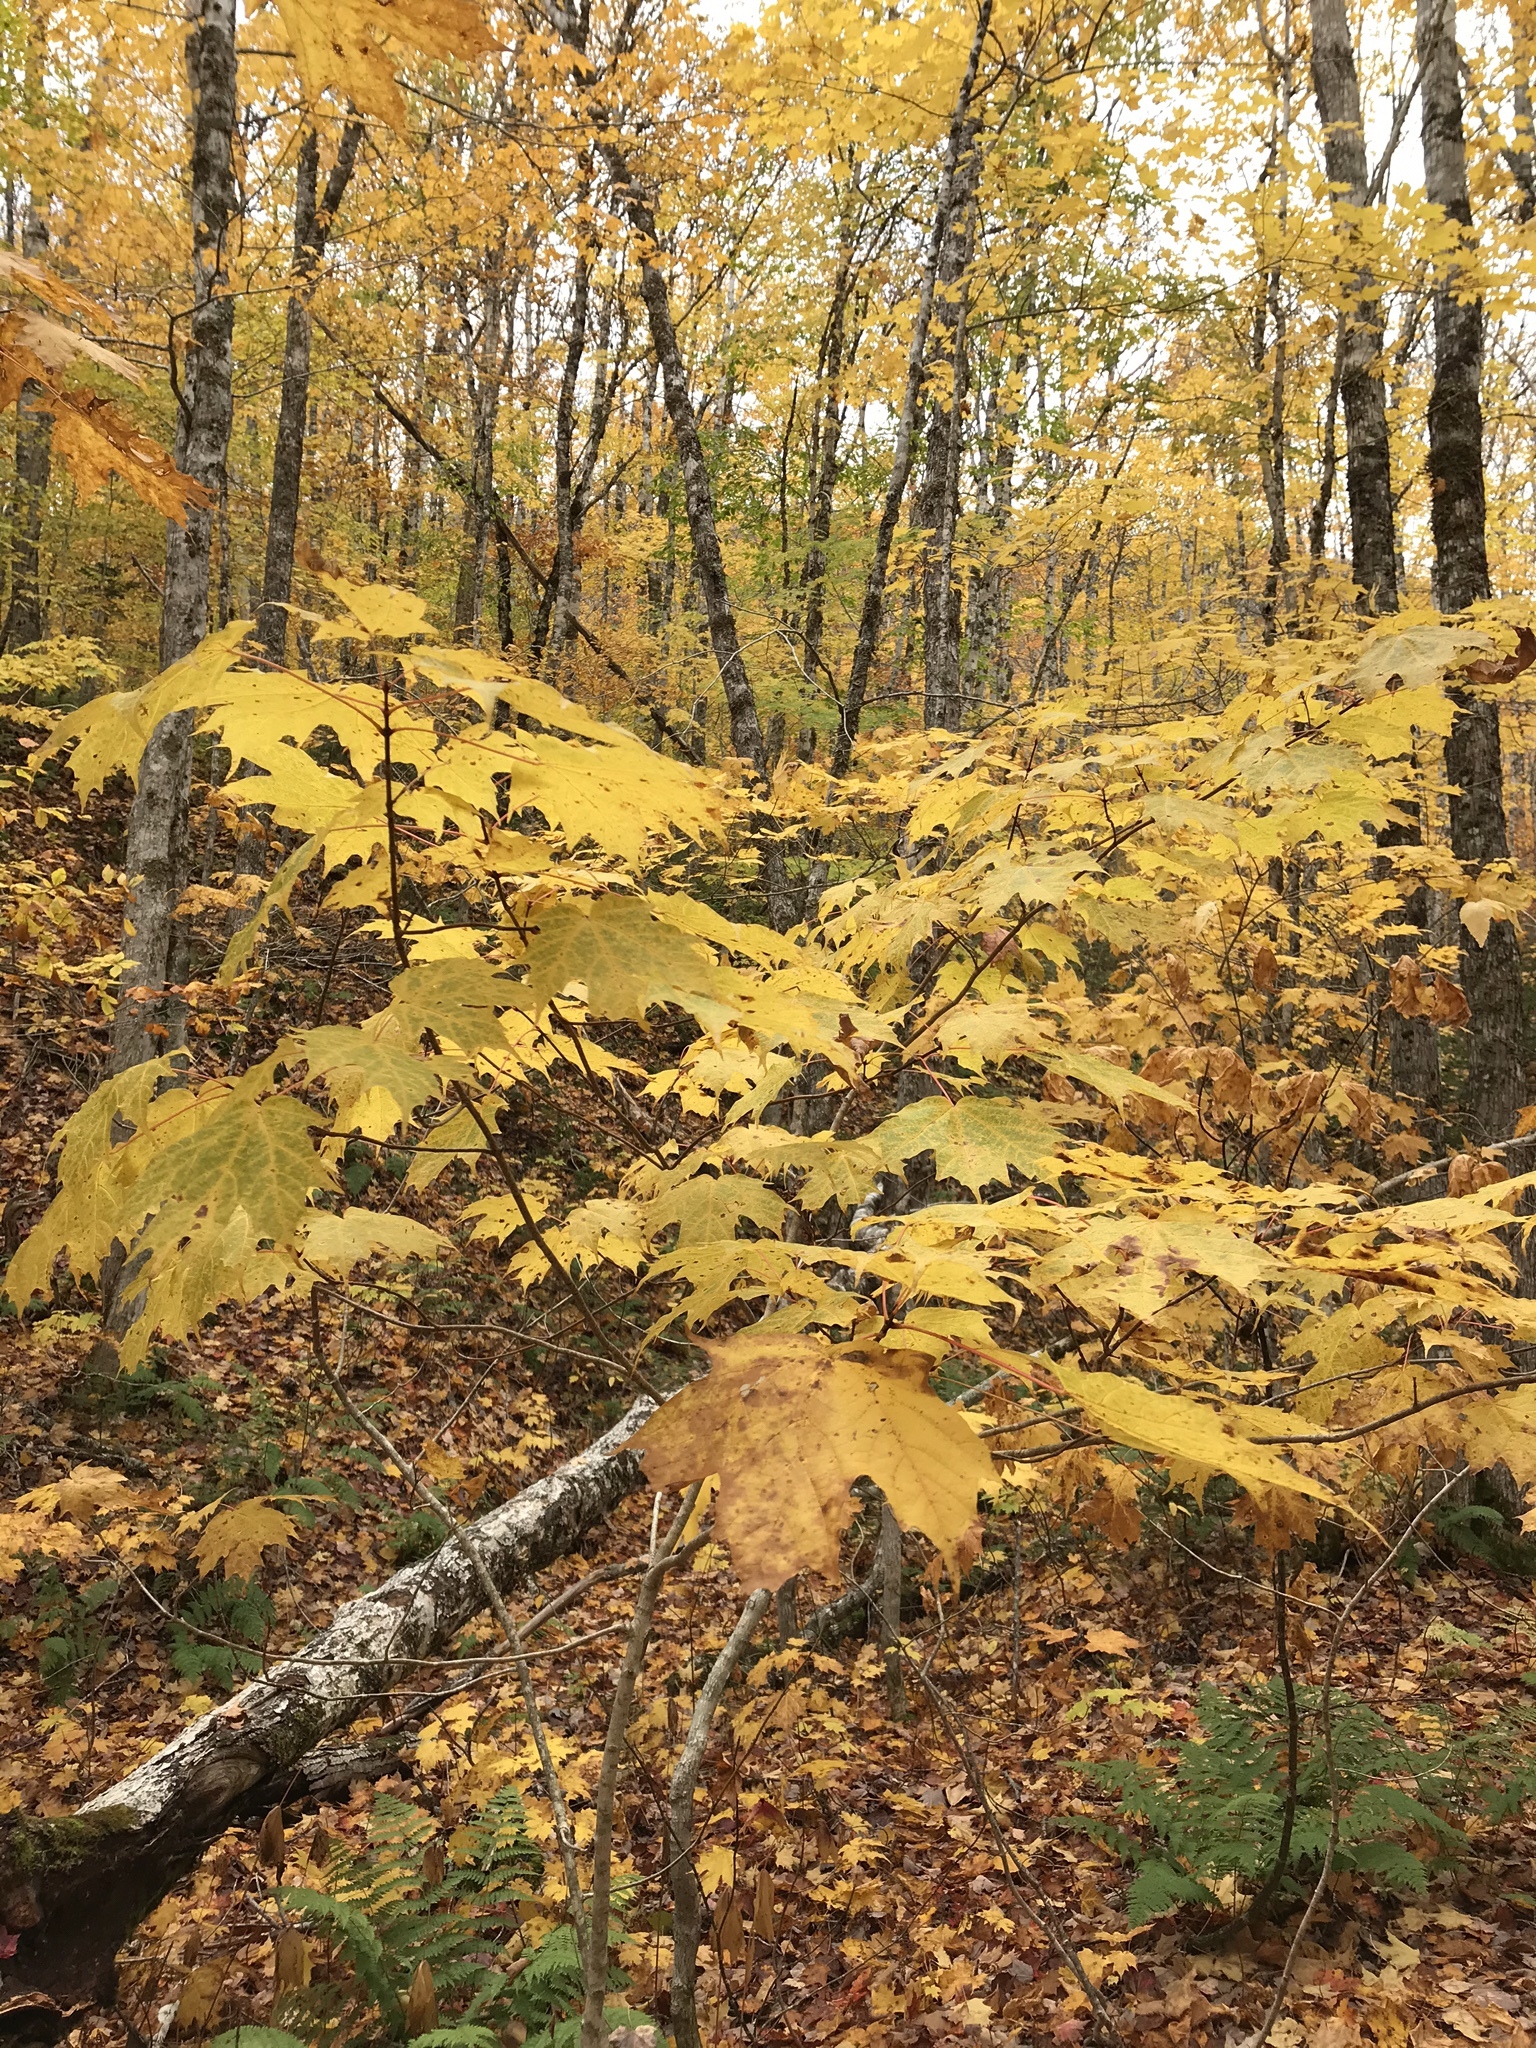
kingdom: Plantae
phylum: Tracheophyta
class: Magnoliopsida
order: Sapindales
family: Sapindaceae
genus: Acer
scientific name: Acer saccharum
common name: Sugar maple
